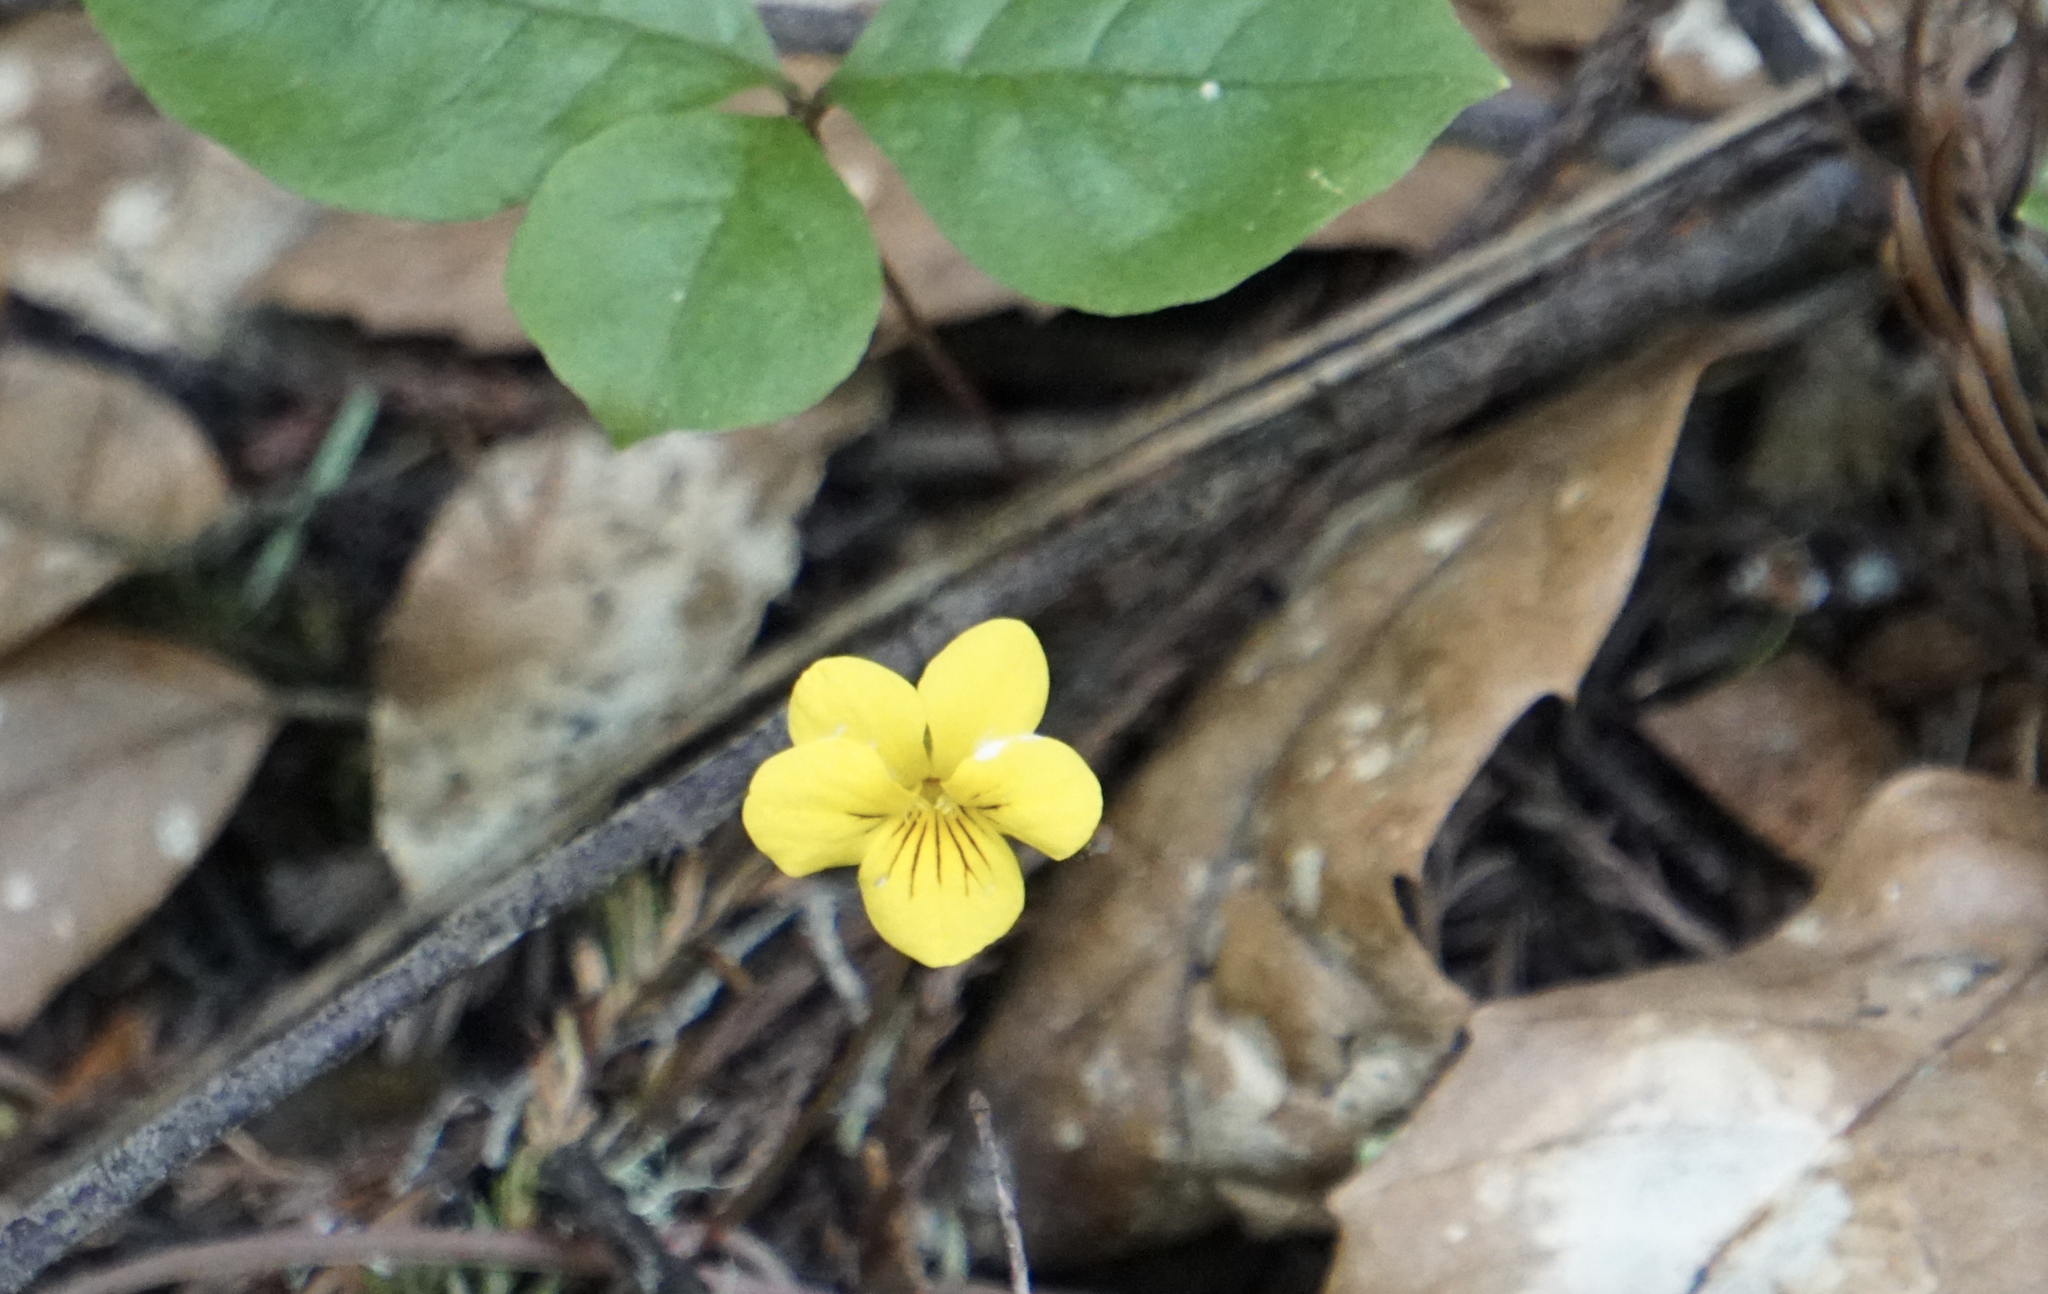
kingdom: Plantae
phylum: Tracheophyta
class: Magnoliopsida
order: Malpighiales
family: Violaceae
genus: Viola
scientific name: Viola sempervirens
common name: Evergreen violet
